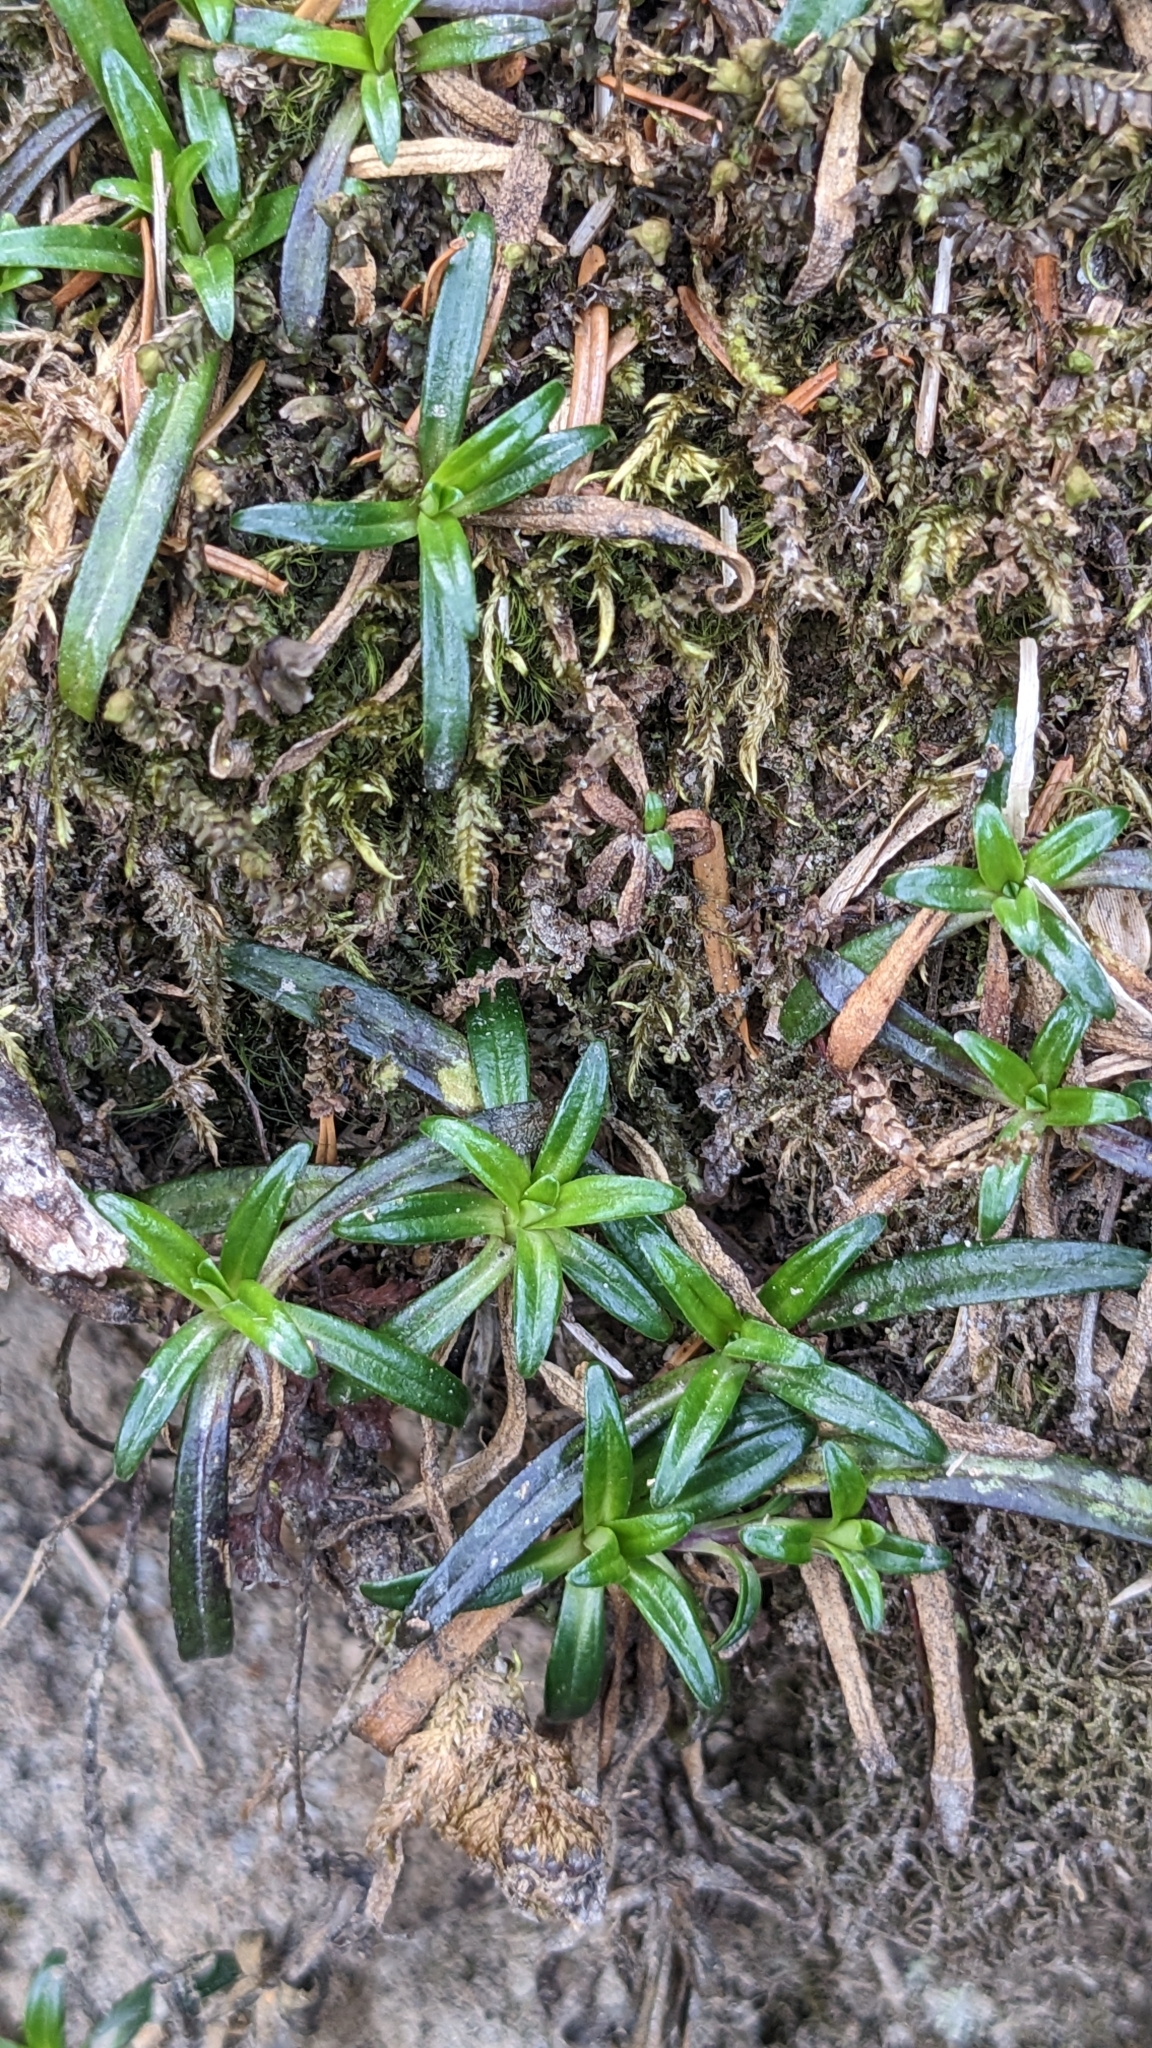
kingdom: Plantae
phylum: Tracheophyta
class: Magnoliopsida
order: Gentianales
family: Gentianaceae
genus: Gentiana
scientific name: Gentiana davidii
